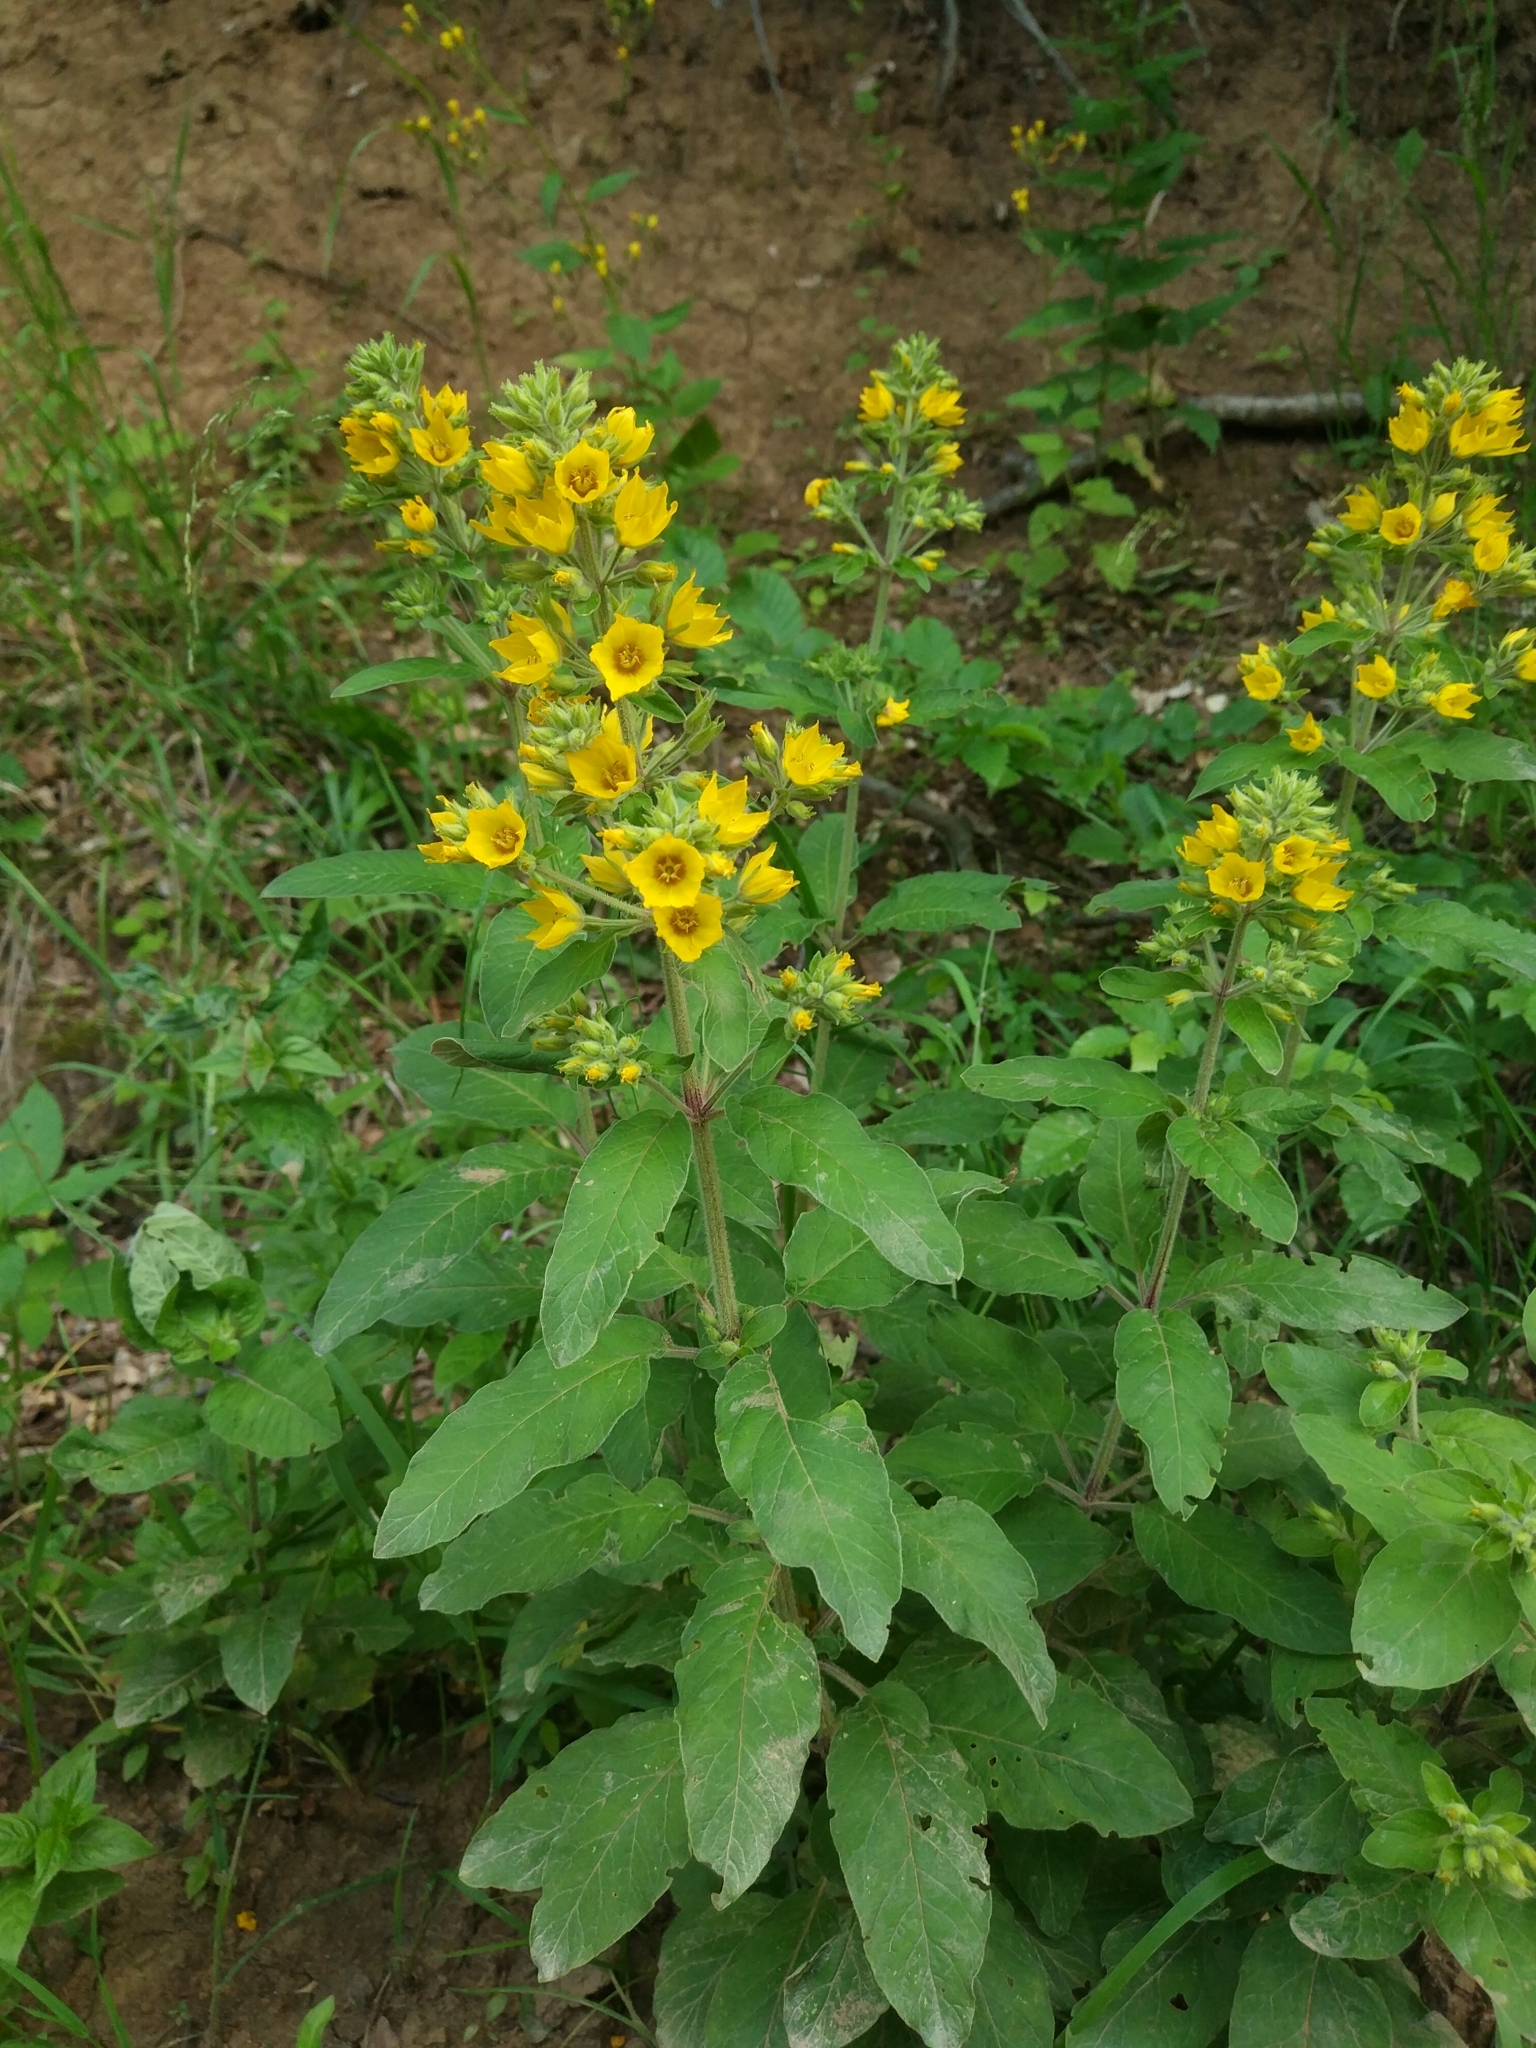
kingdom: Plantae
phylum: Tracheophyta
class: Magnoliopsida
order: Ericales
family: Primulaceae
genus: Lysimachia
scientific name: Lysimachia verticillaris
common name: Yellow loosestrife
